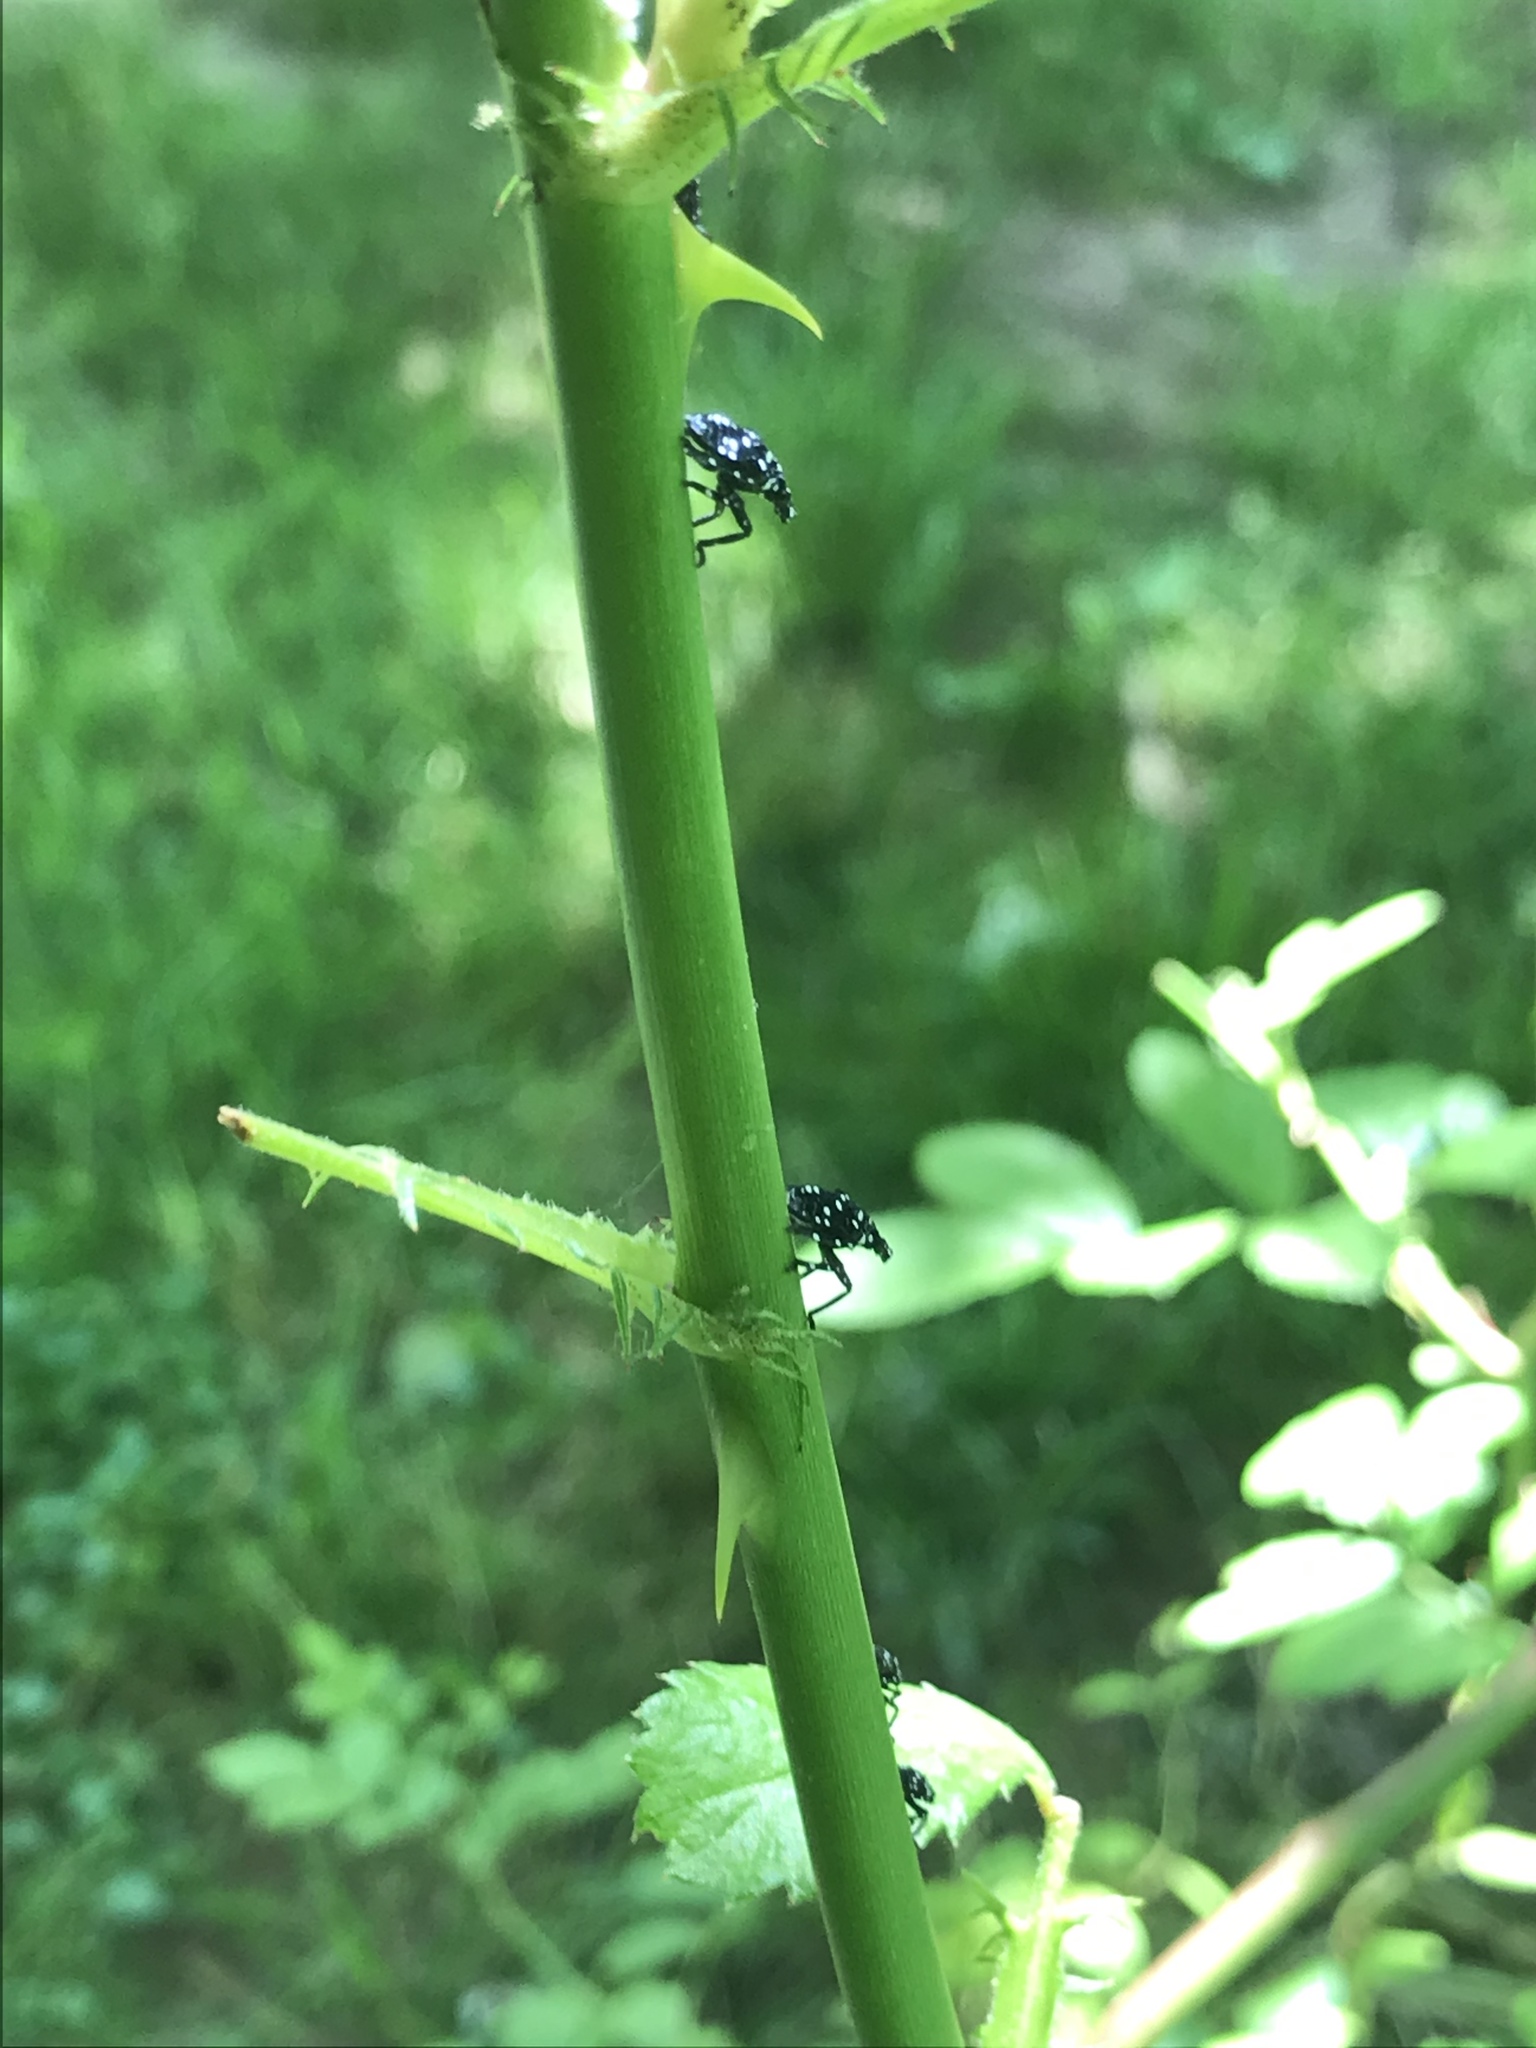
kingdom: Animalia
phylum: Arthropoda
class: Insecta
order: Hemiptera
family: Fulgoridae
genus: Lycorma
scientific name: Lycorma delicatula
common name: Spotted lanternfly
